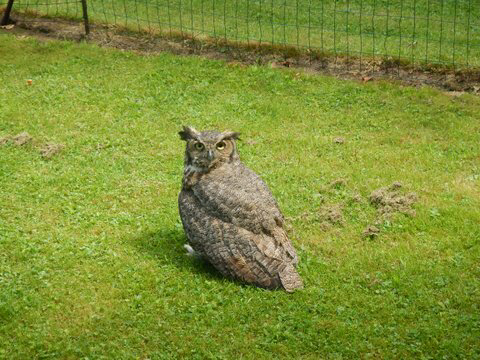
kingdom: Animalia
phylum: Chordata
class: Aves
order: Strigiformes
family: Strigidae
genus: Bubo
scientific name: Bubo virginianus
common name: Great horned owl
